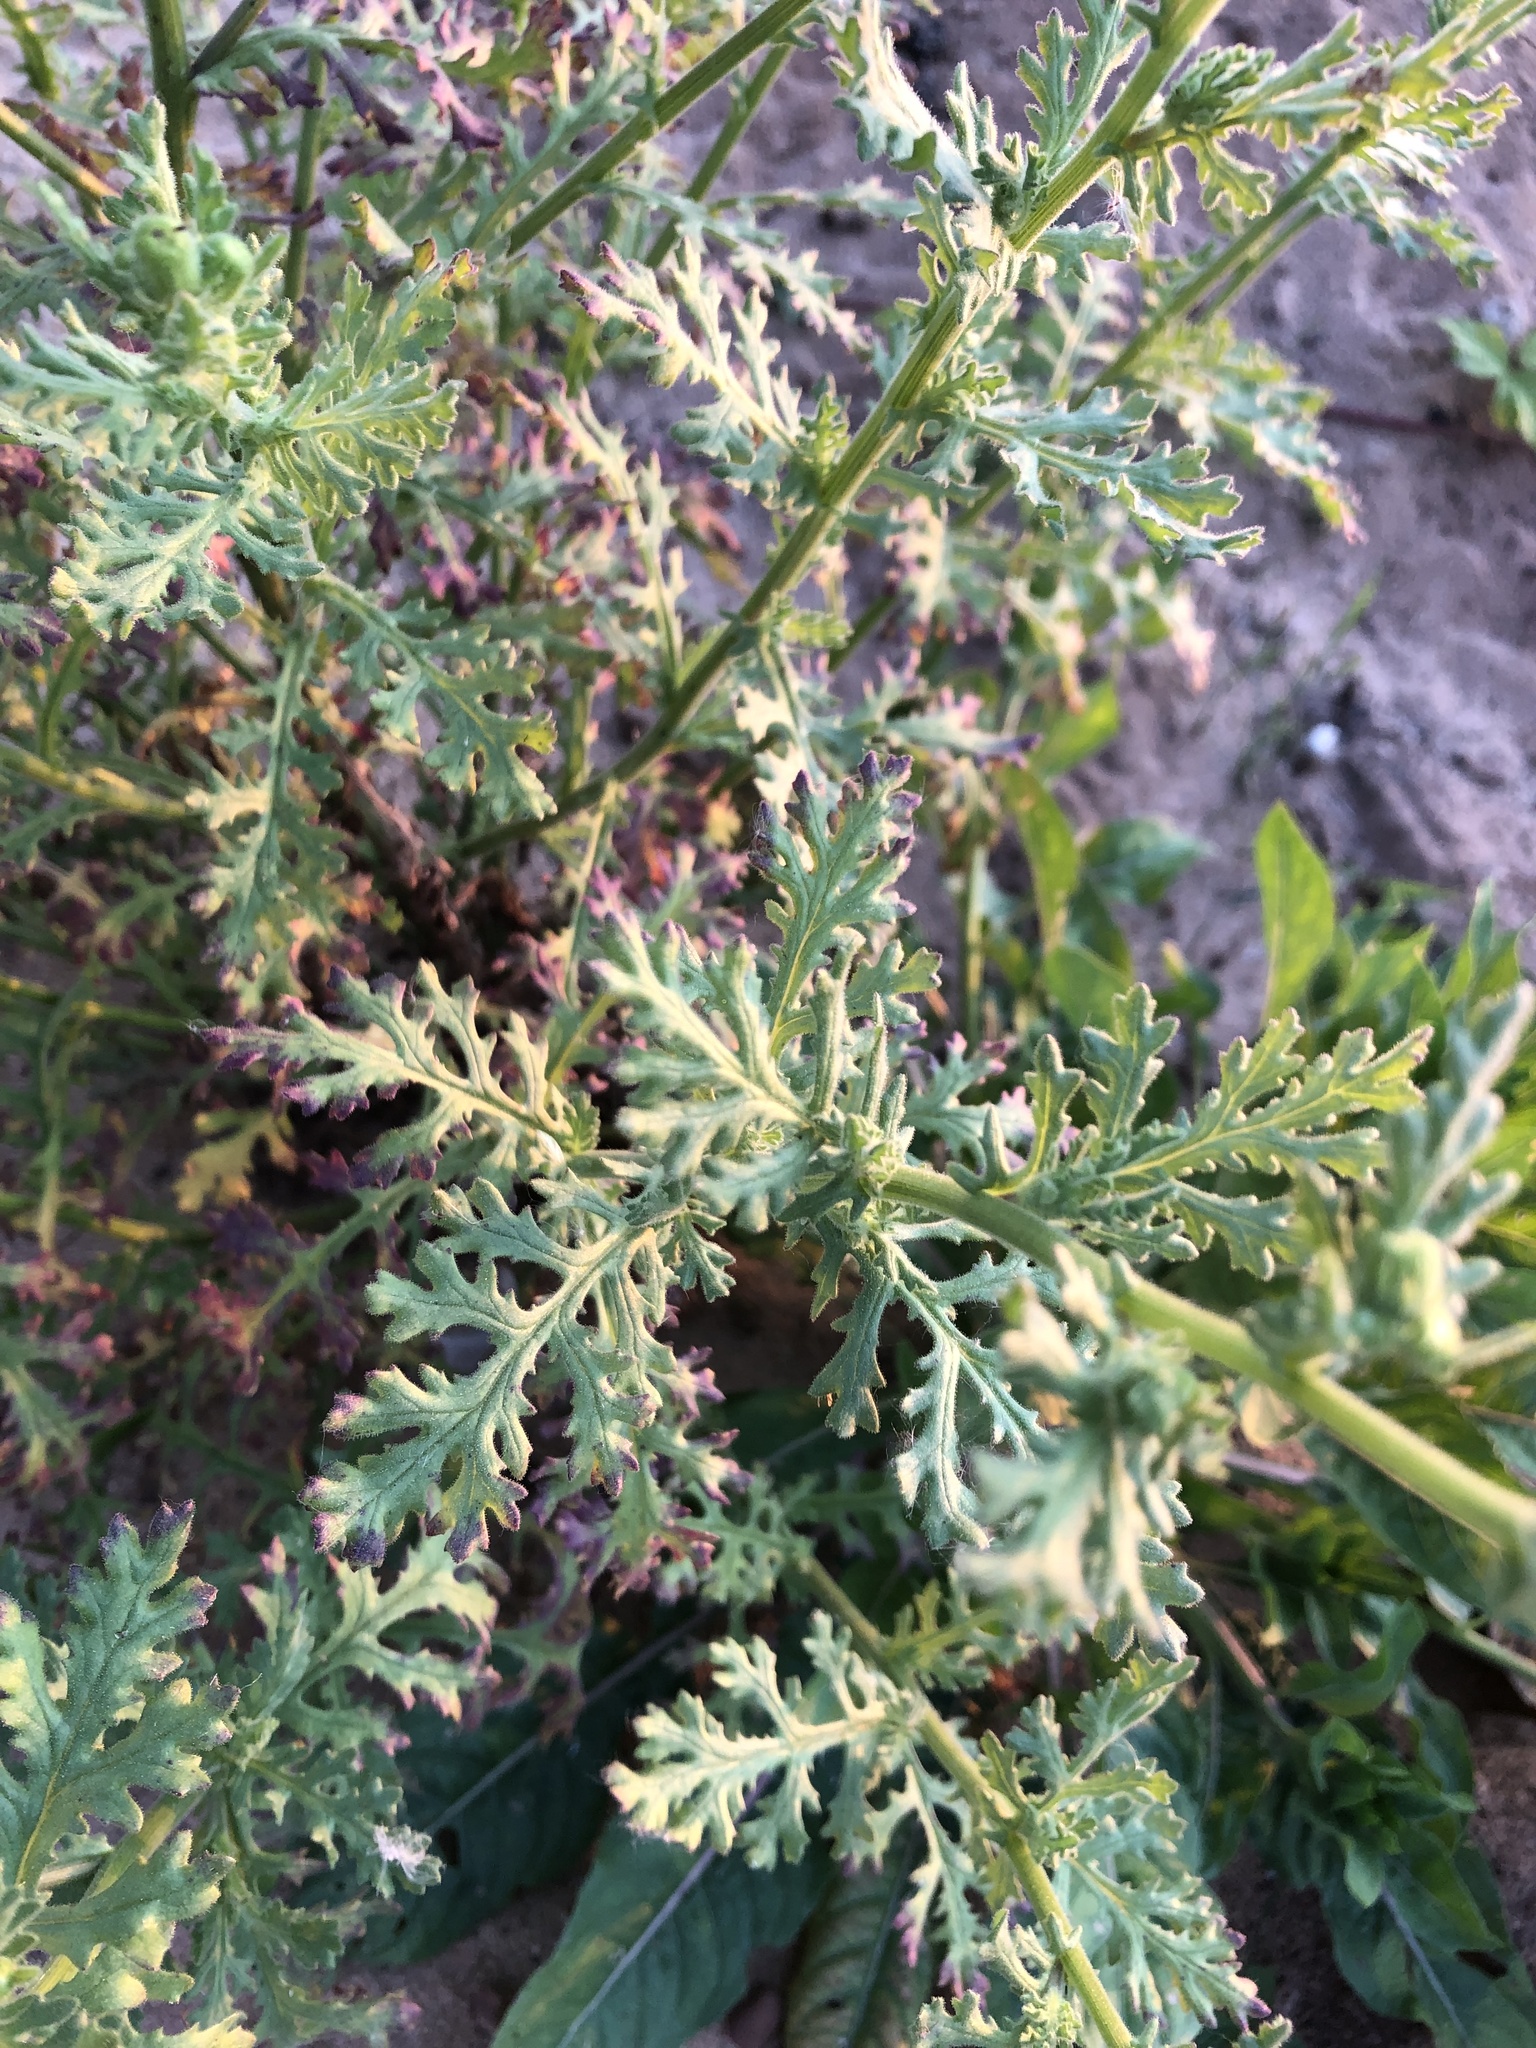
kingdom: Plantae
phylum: Tracheophyta
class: Magnoliopsida
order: Asterales
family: Asteraceae
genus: Senecio
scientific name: Senecio viscosus
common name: Sticky groundsel
